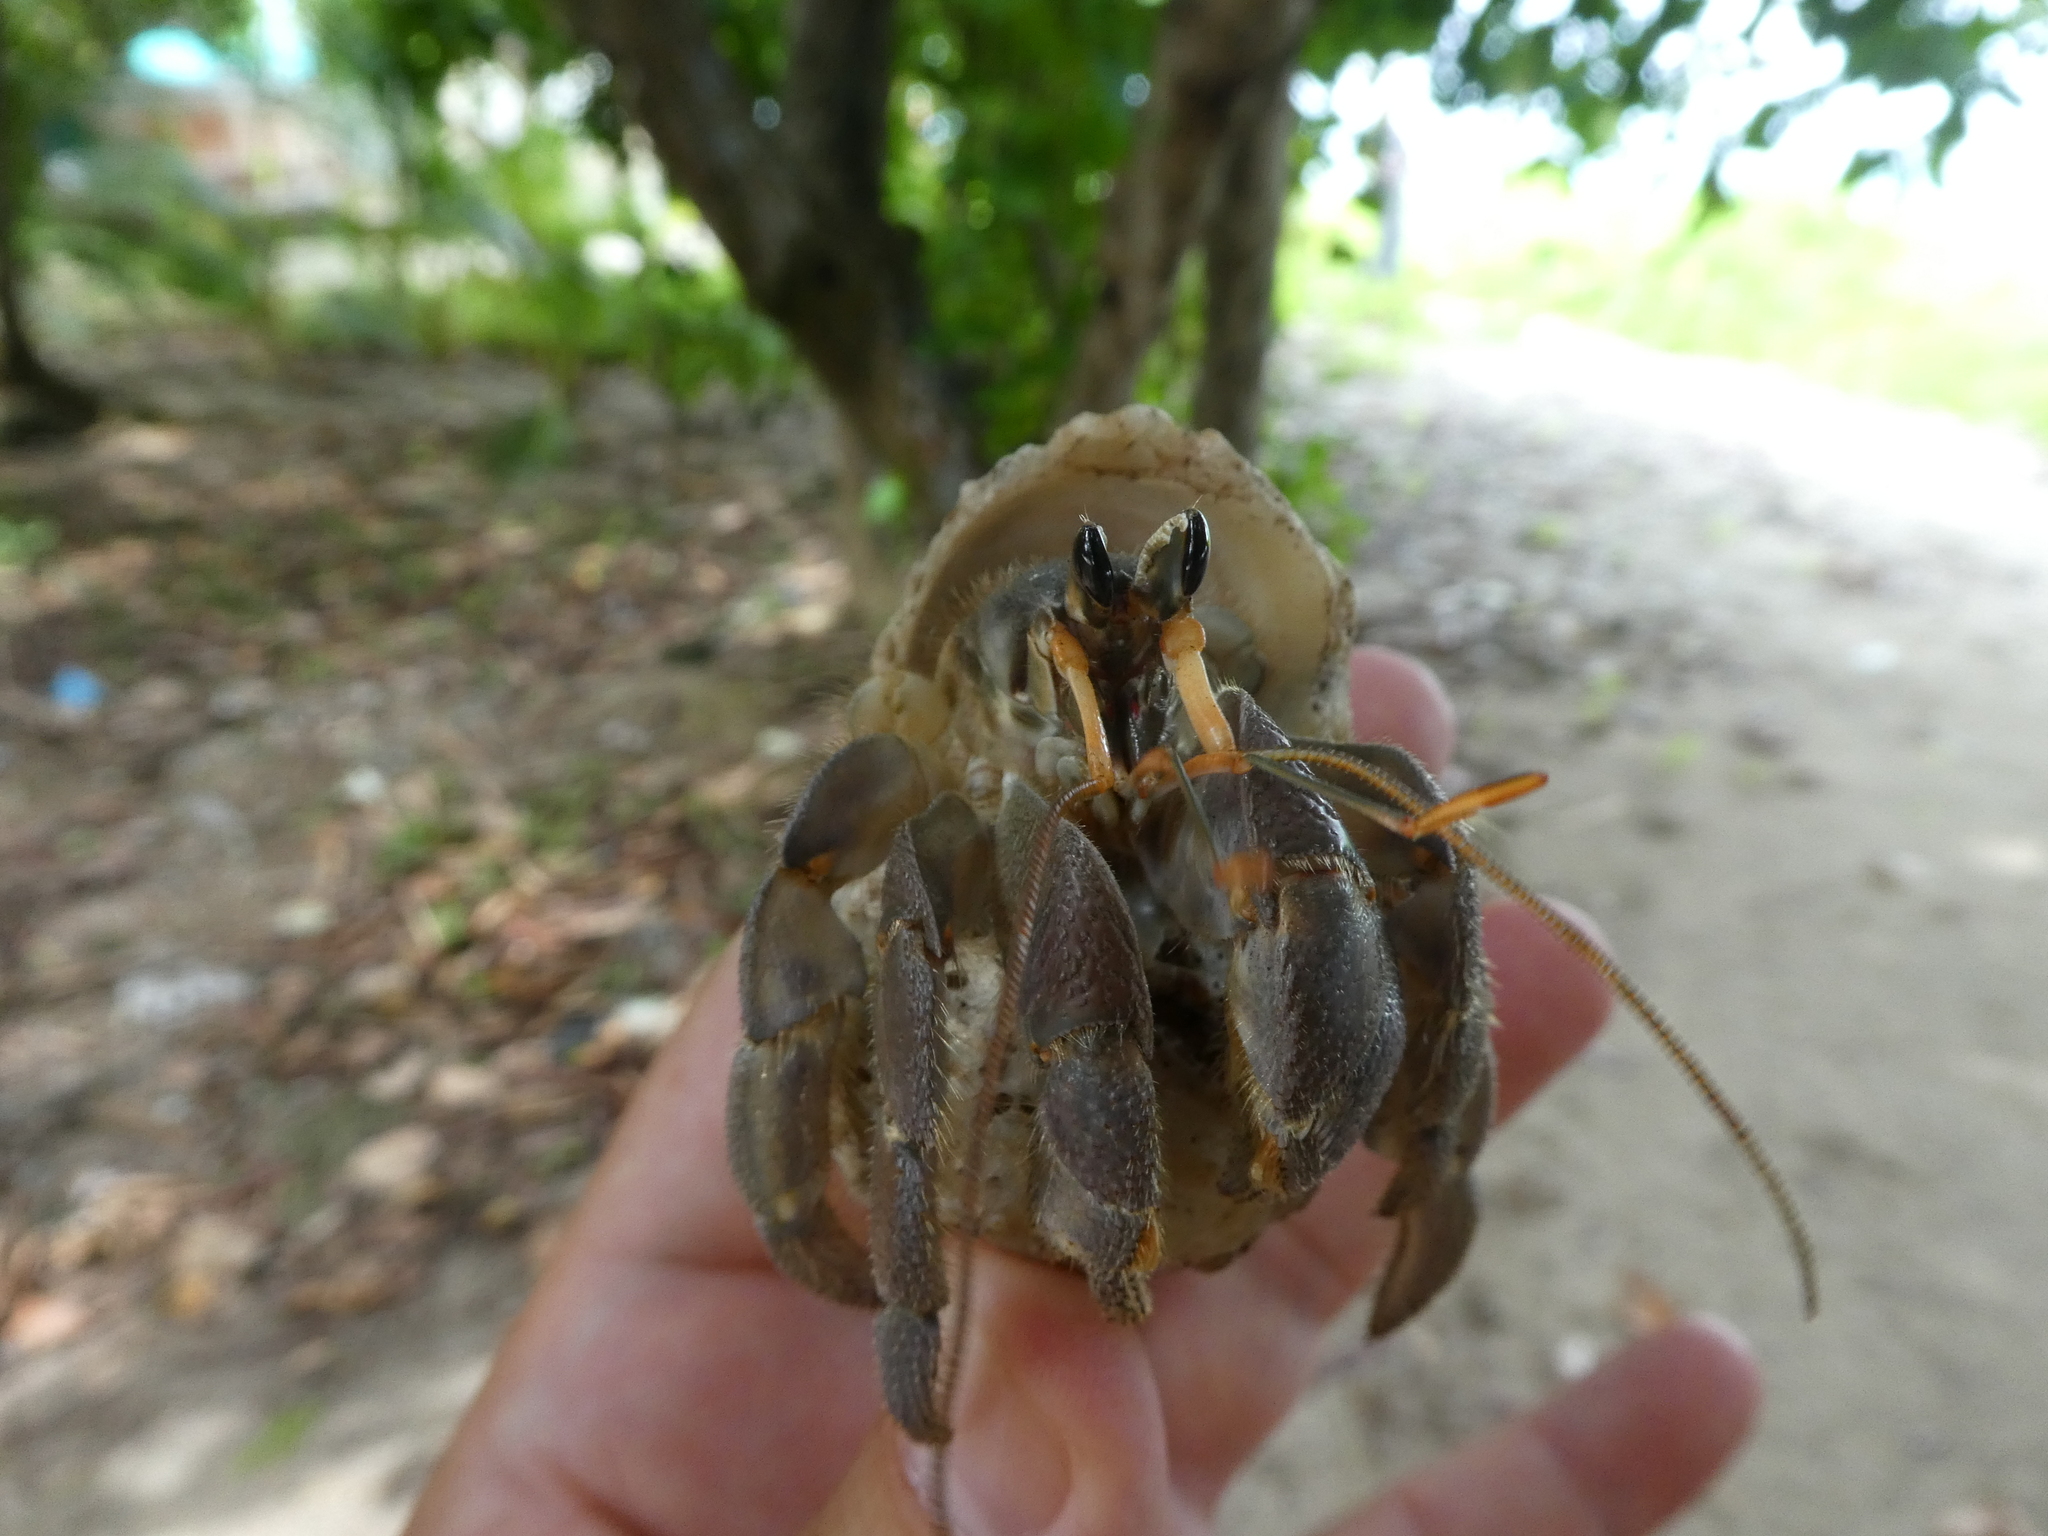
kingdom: Animalia
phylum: Arthropoda
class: Malacostraca
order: Decapoda
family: Coenobitidae
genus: Coenobita
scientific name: Coenobita rugosus
